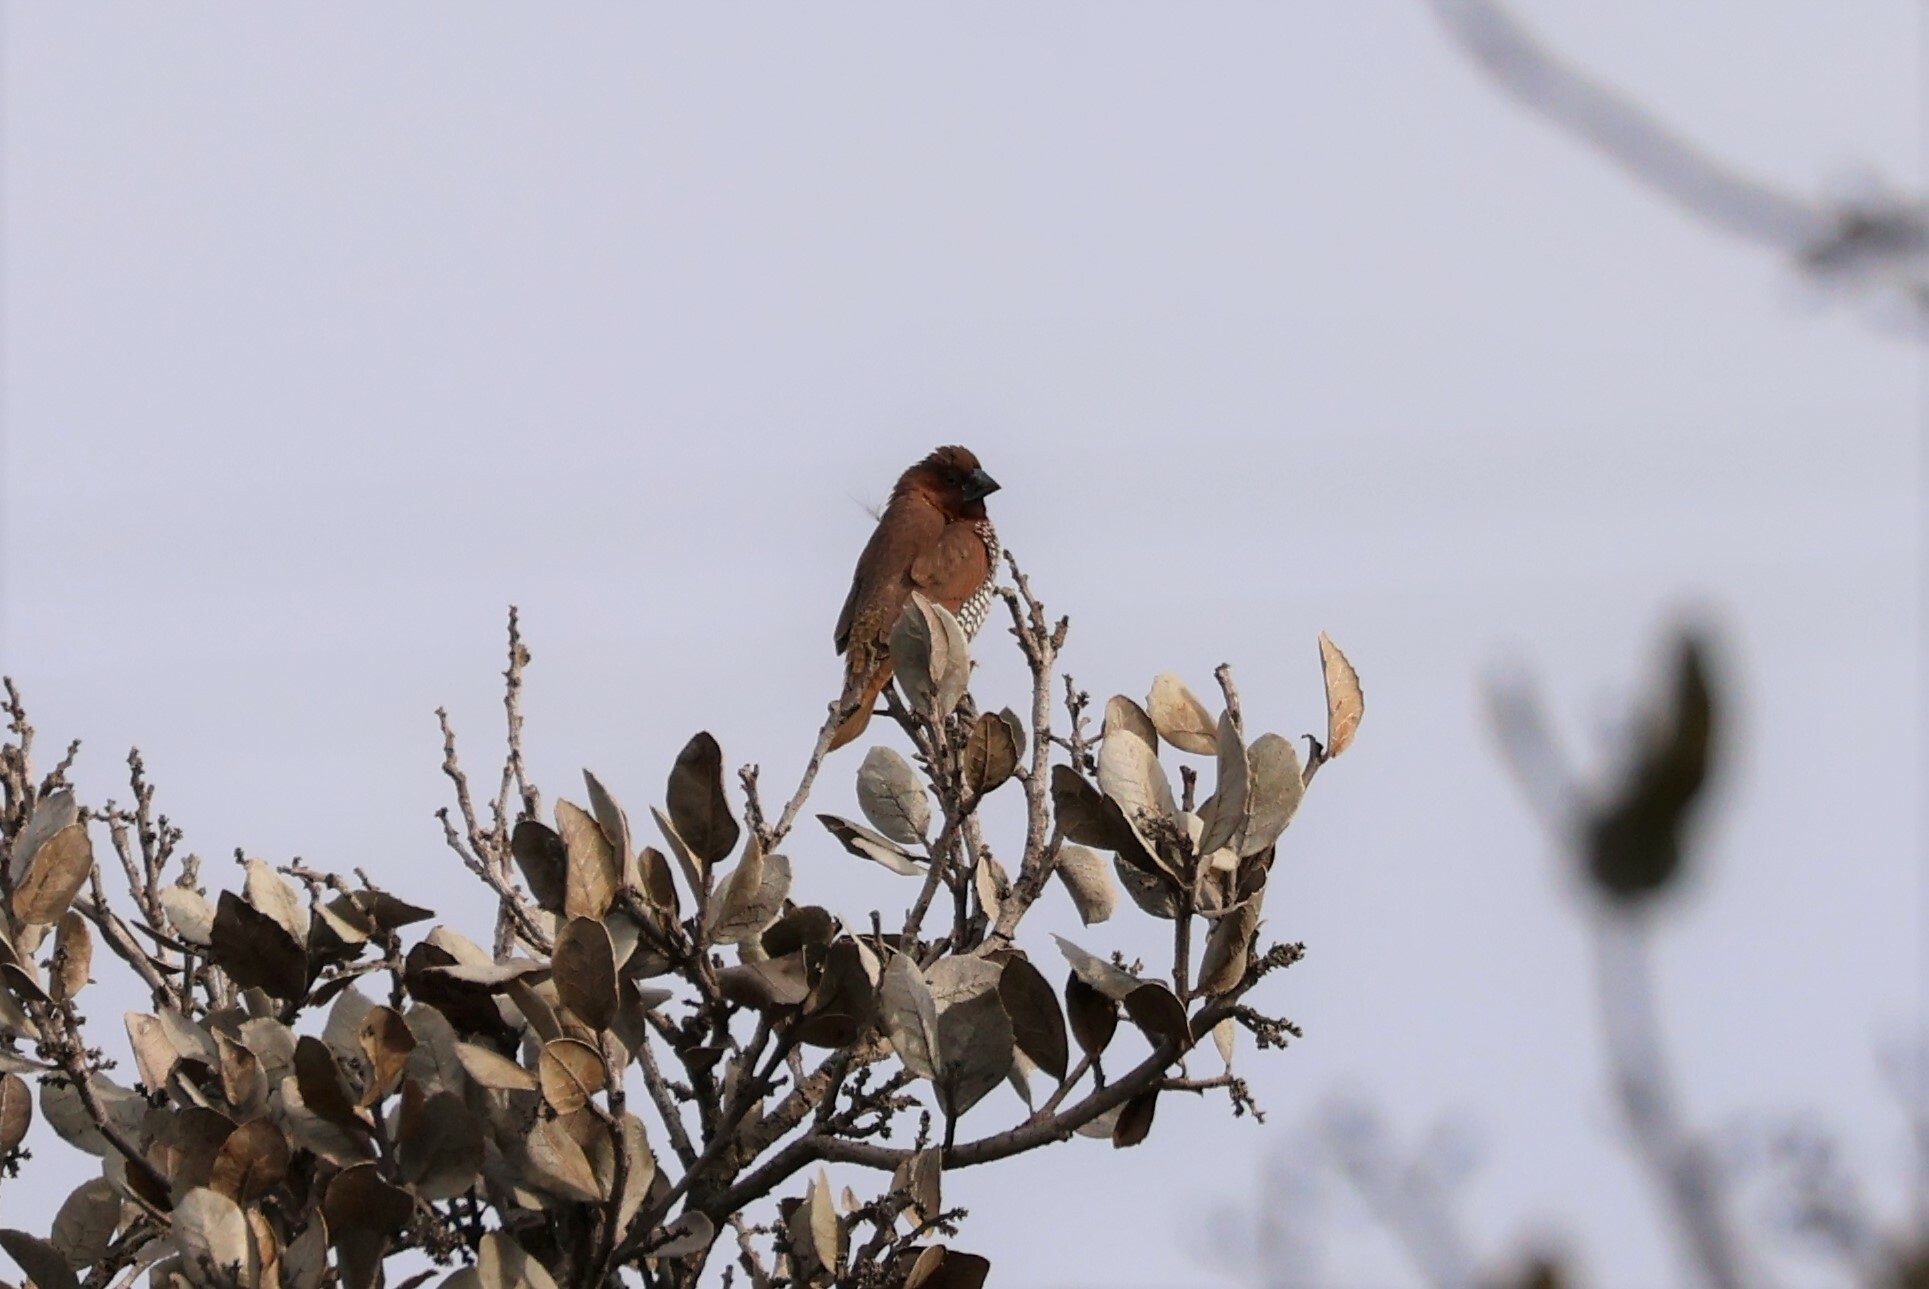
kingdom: Animalia
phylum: Chordata
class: Aves
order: Passeriformes
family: Estrildidae
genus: Lonchura
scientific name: Lonchura punctulata
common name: Scaly-breasted munia
